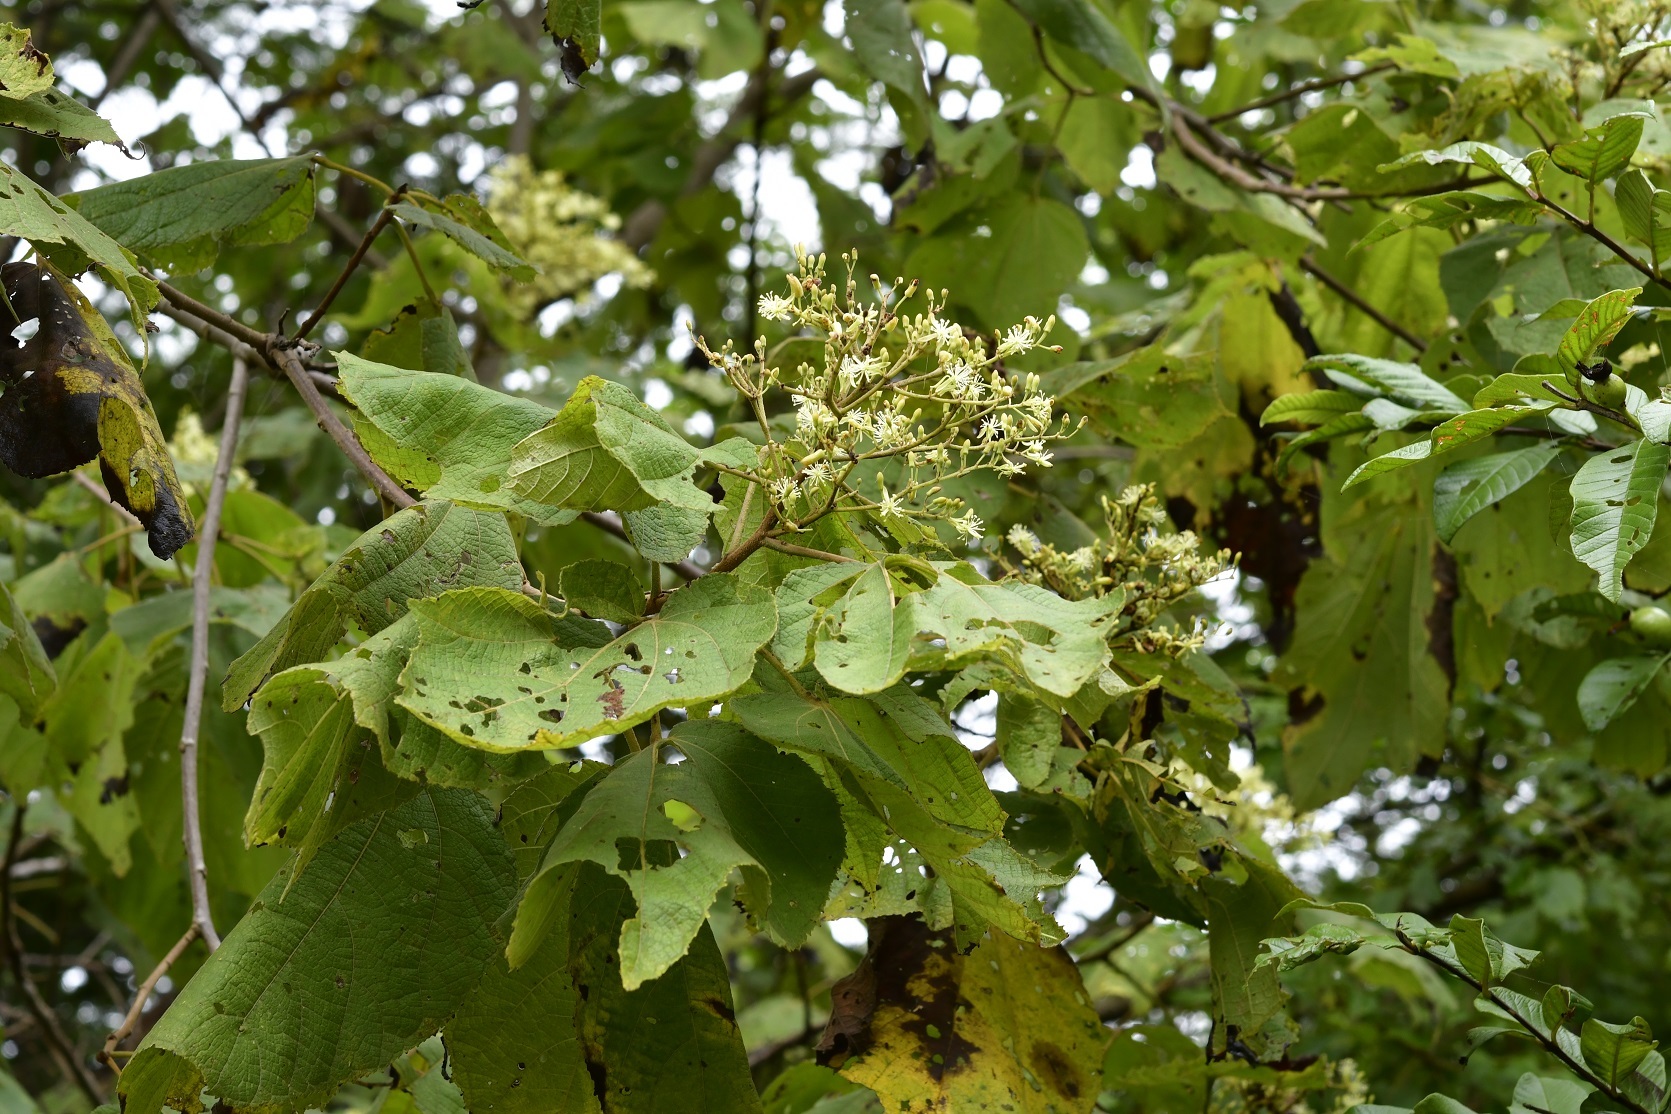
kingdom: Plantae
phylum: Tracheophyta
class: Magnoliopsida
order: Malvales
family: Malvaceae
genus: Heliocarpus
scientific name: Heliocarpus terebinthinaceus
